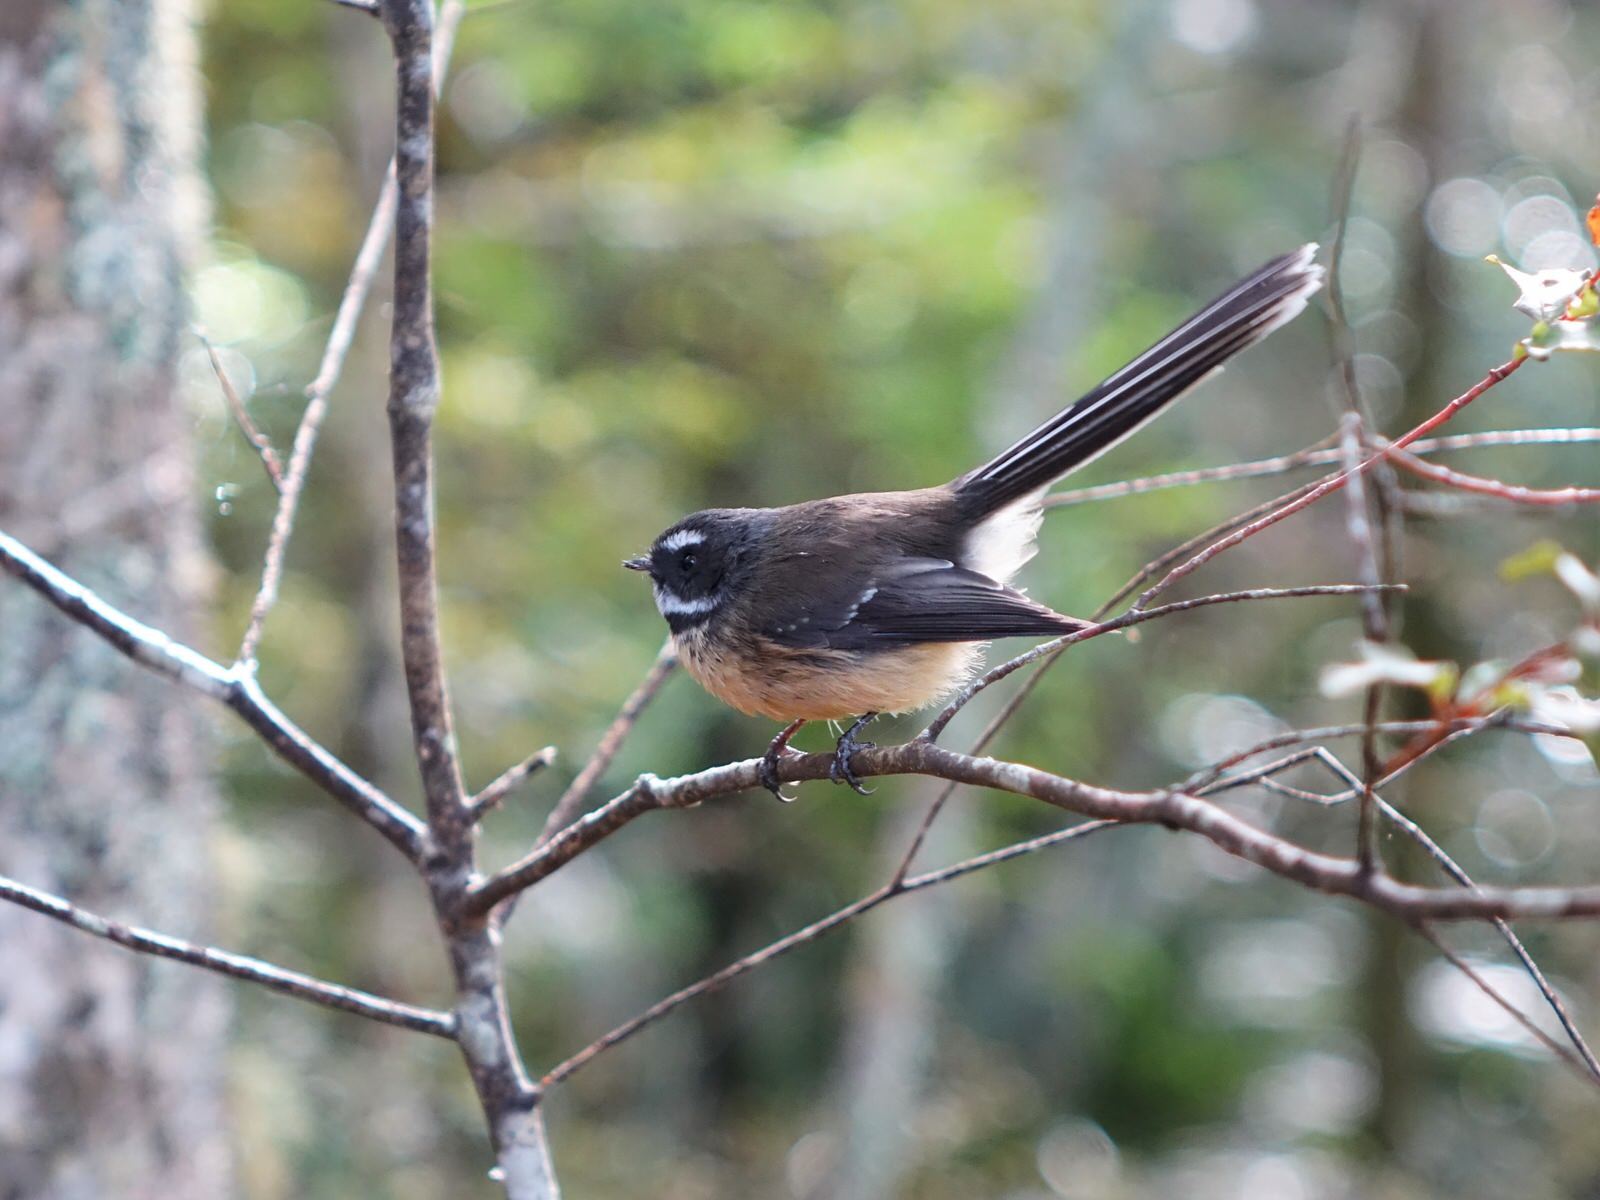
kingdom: Animalia
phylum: Chordata
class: Aves
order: Passeriformes
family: Rhipiduridae
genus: Rhipidura
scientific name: Rhipidura fuliginosa
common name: New zealand fantail
